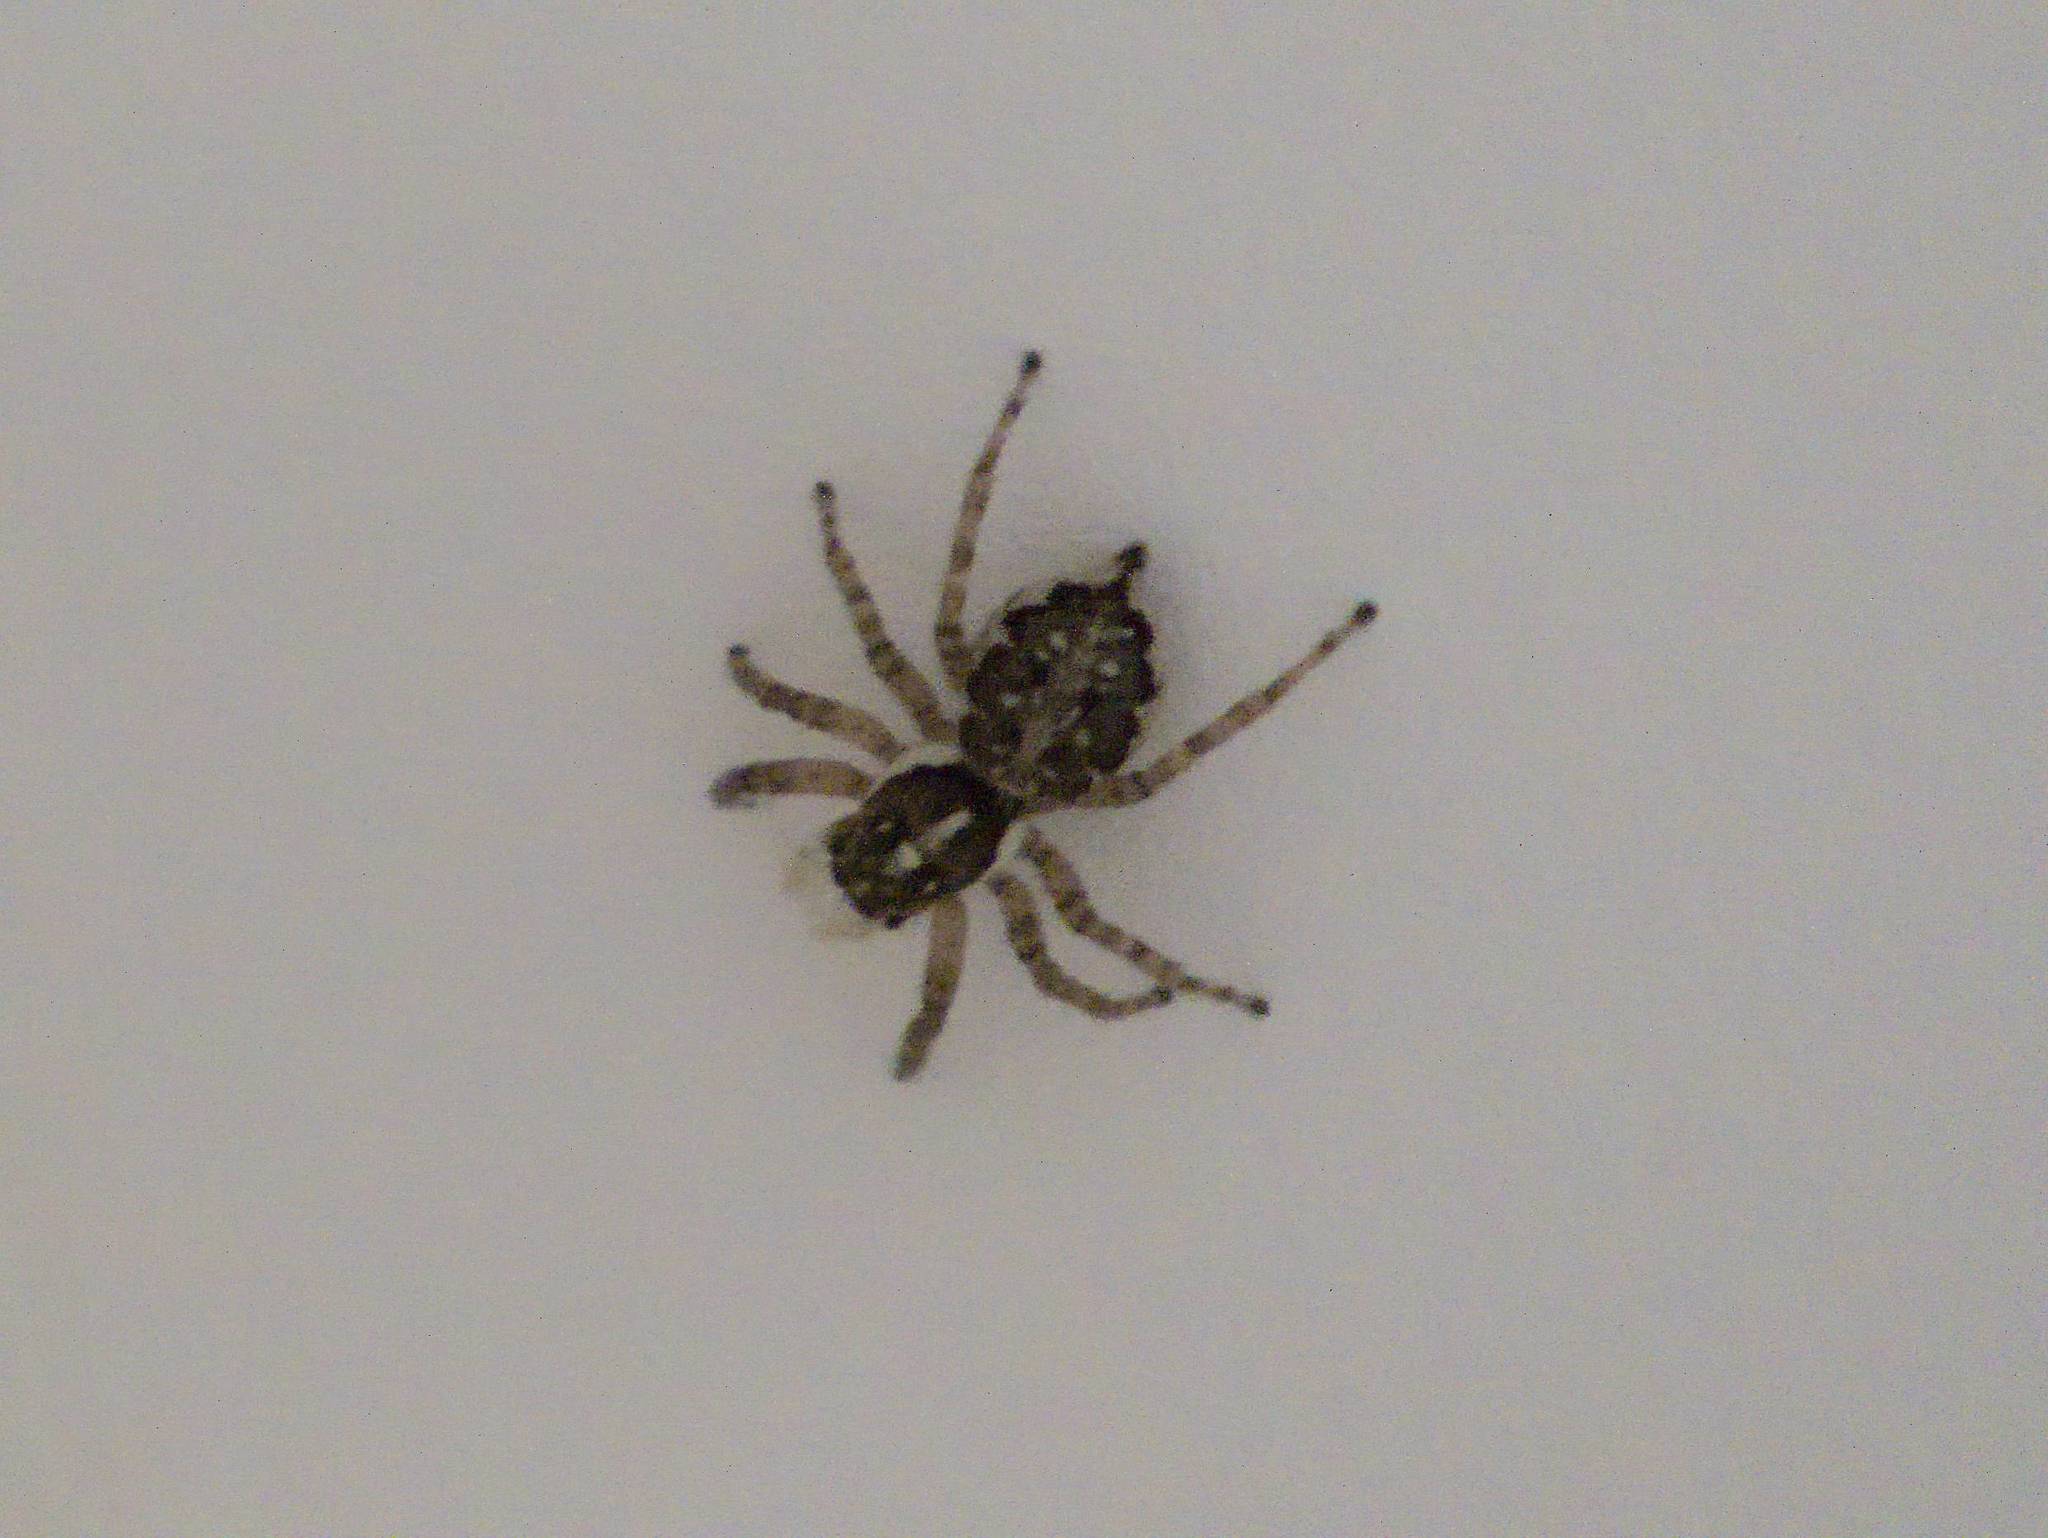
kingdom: Animalia
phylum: Arthropoda
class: Arachnida
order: Araneae
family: Salticidae
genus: Menemerus
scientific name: Menemerus semilimbatus
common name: Jumping spider
